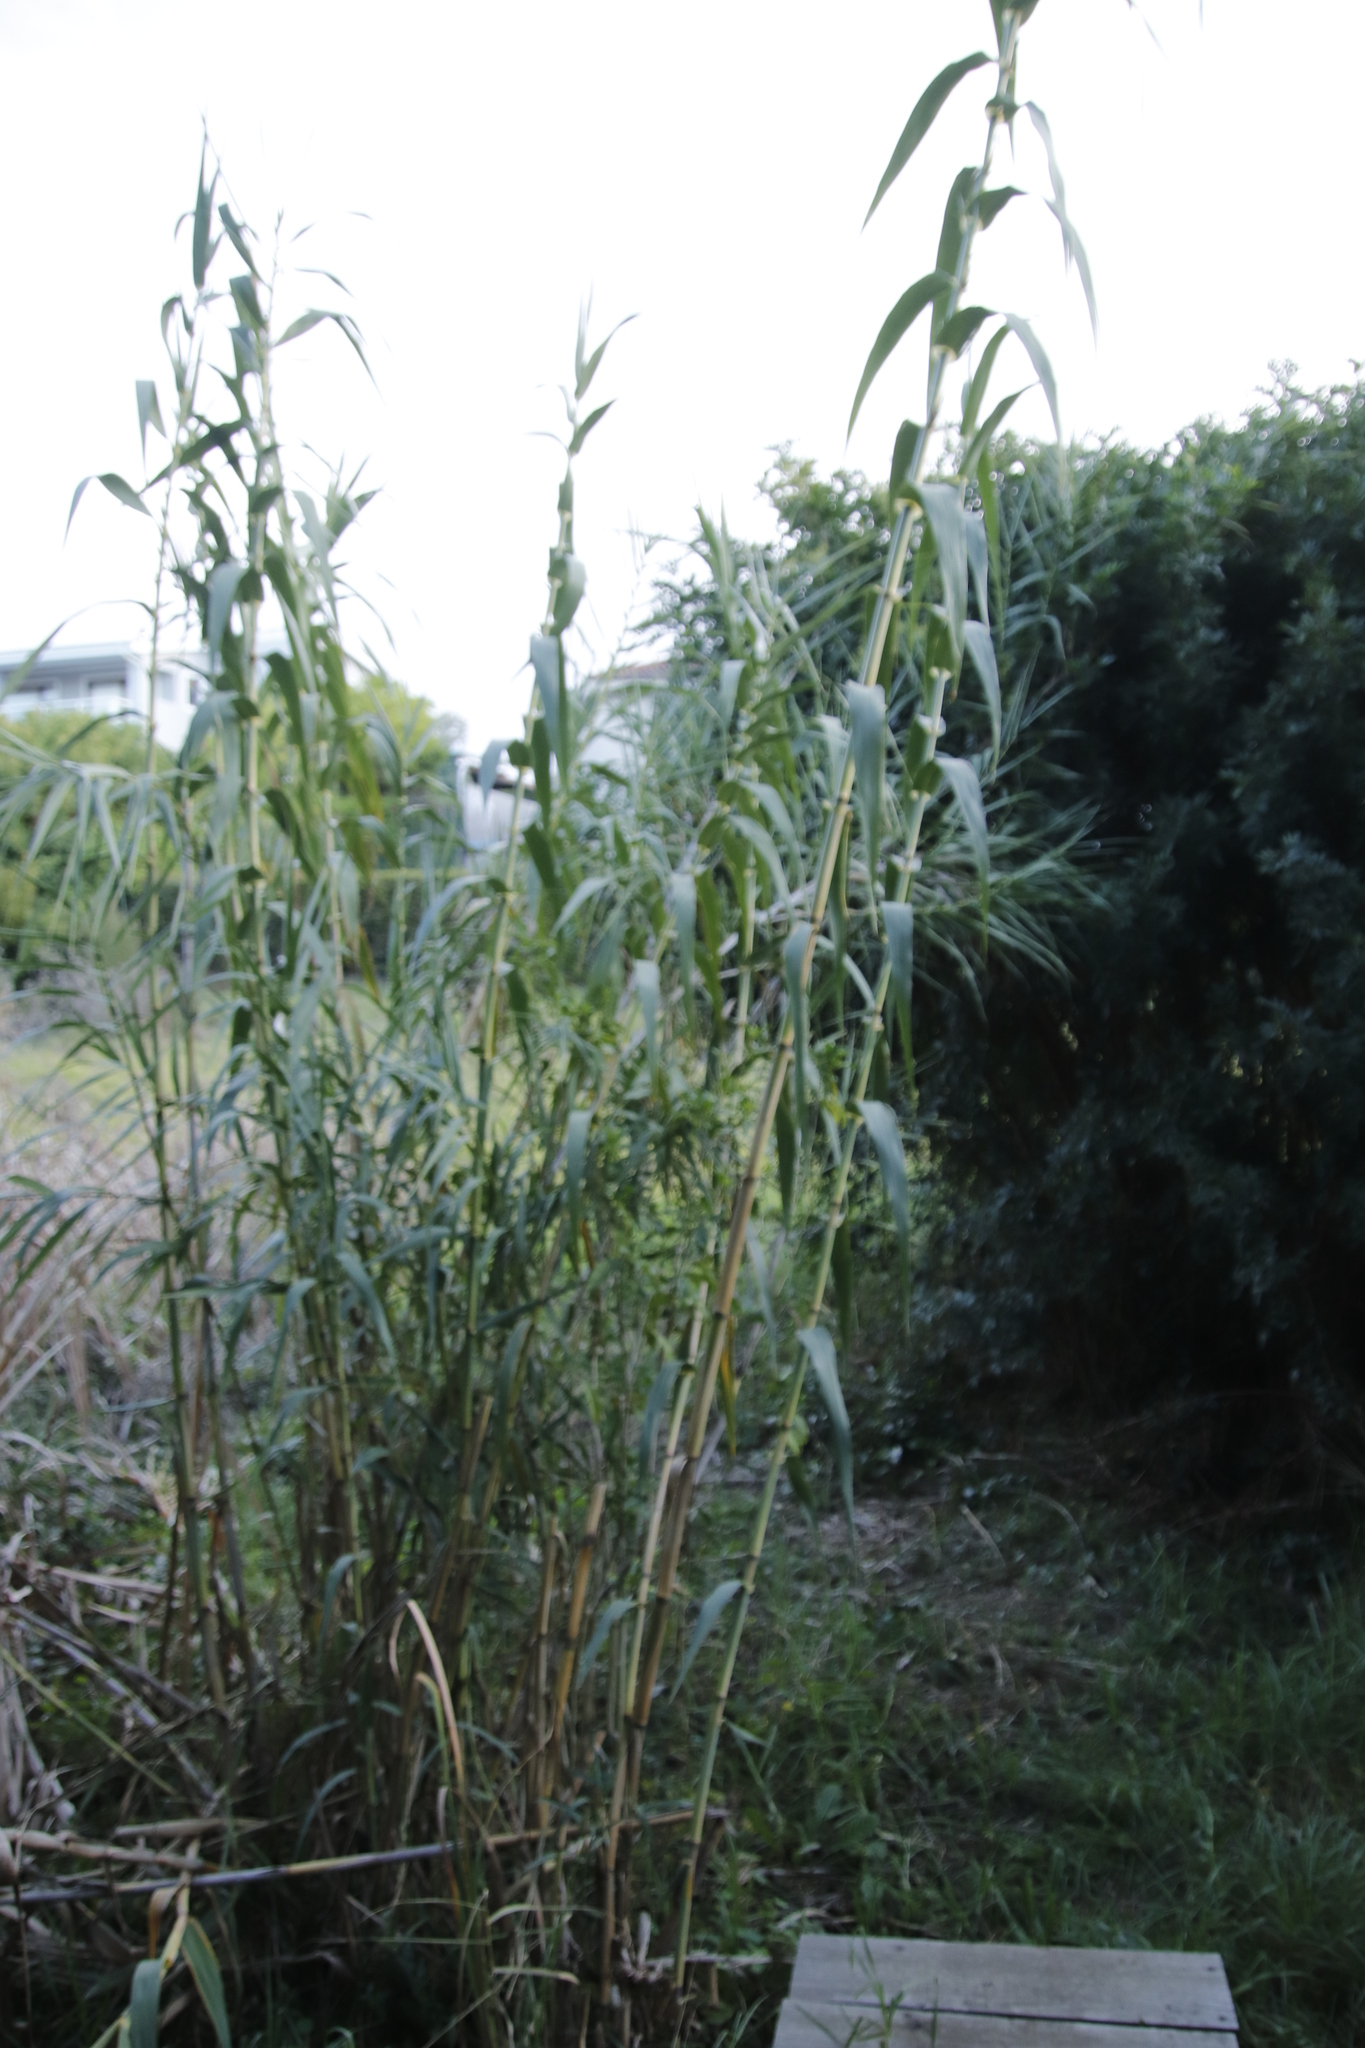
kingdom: Plantae
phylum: Tracheophyta
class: Liliopsida
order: Poales
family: Poaceae
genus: Arundo
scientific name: Arundo donax
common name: Giant reed
